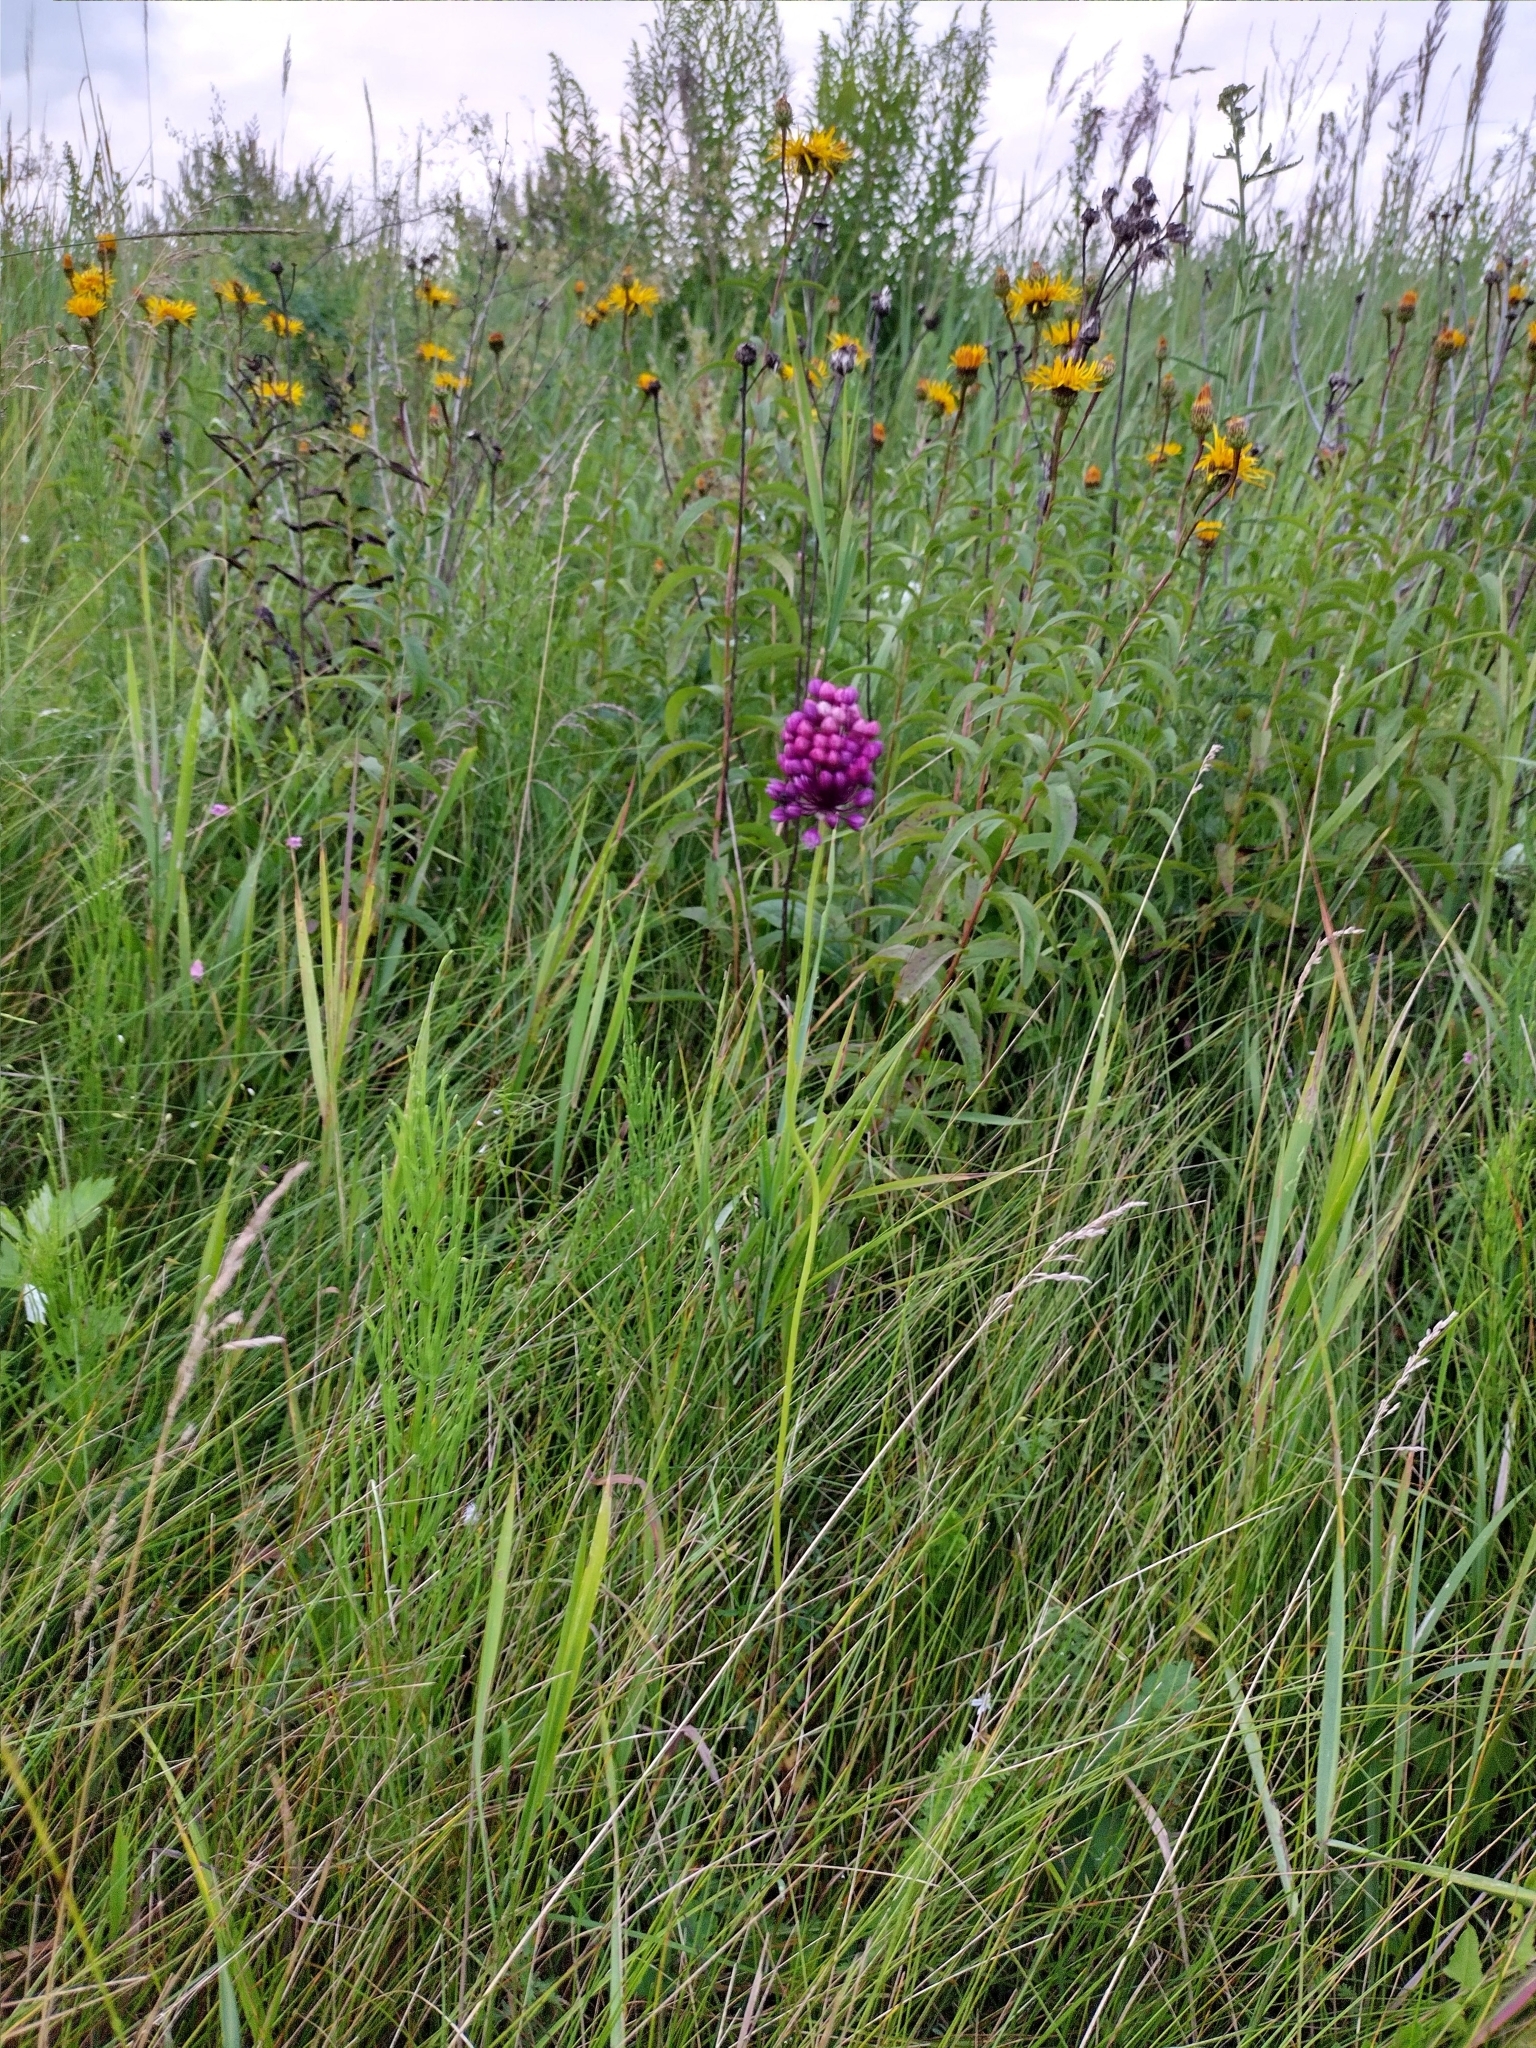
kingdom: Plantae
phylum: Tracheophyta
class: Liliopsida
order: Asparagales
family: Amaryllidaceae
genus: Allium
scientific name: Allium rotundum
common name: Sand leek
